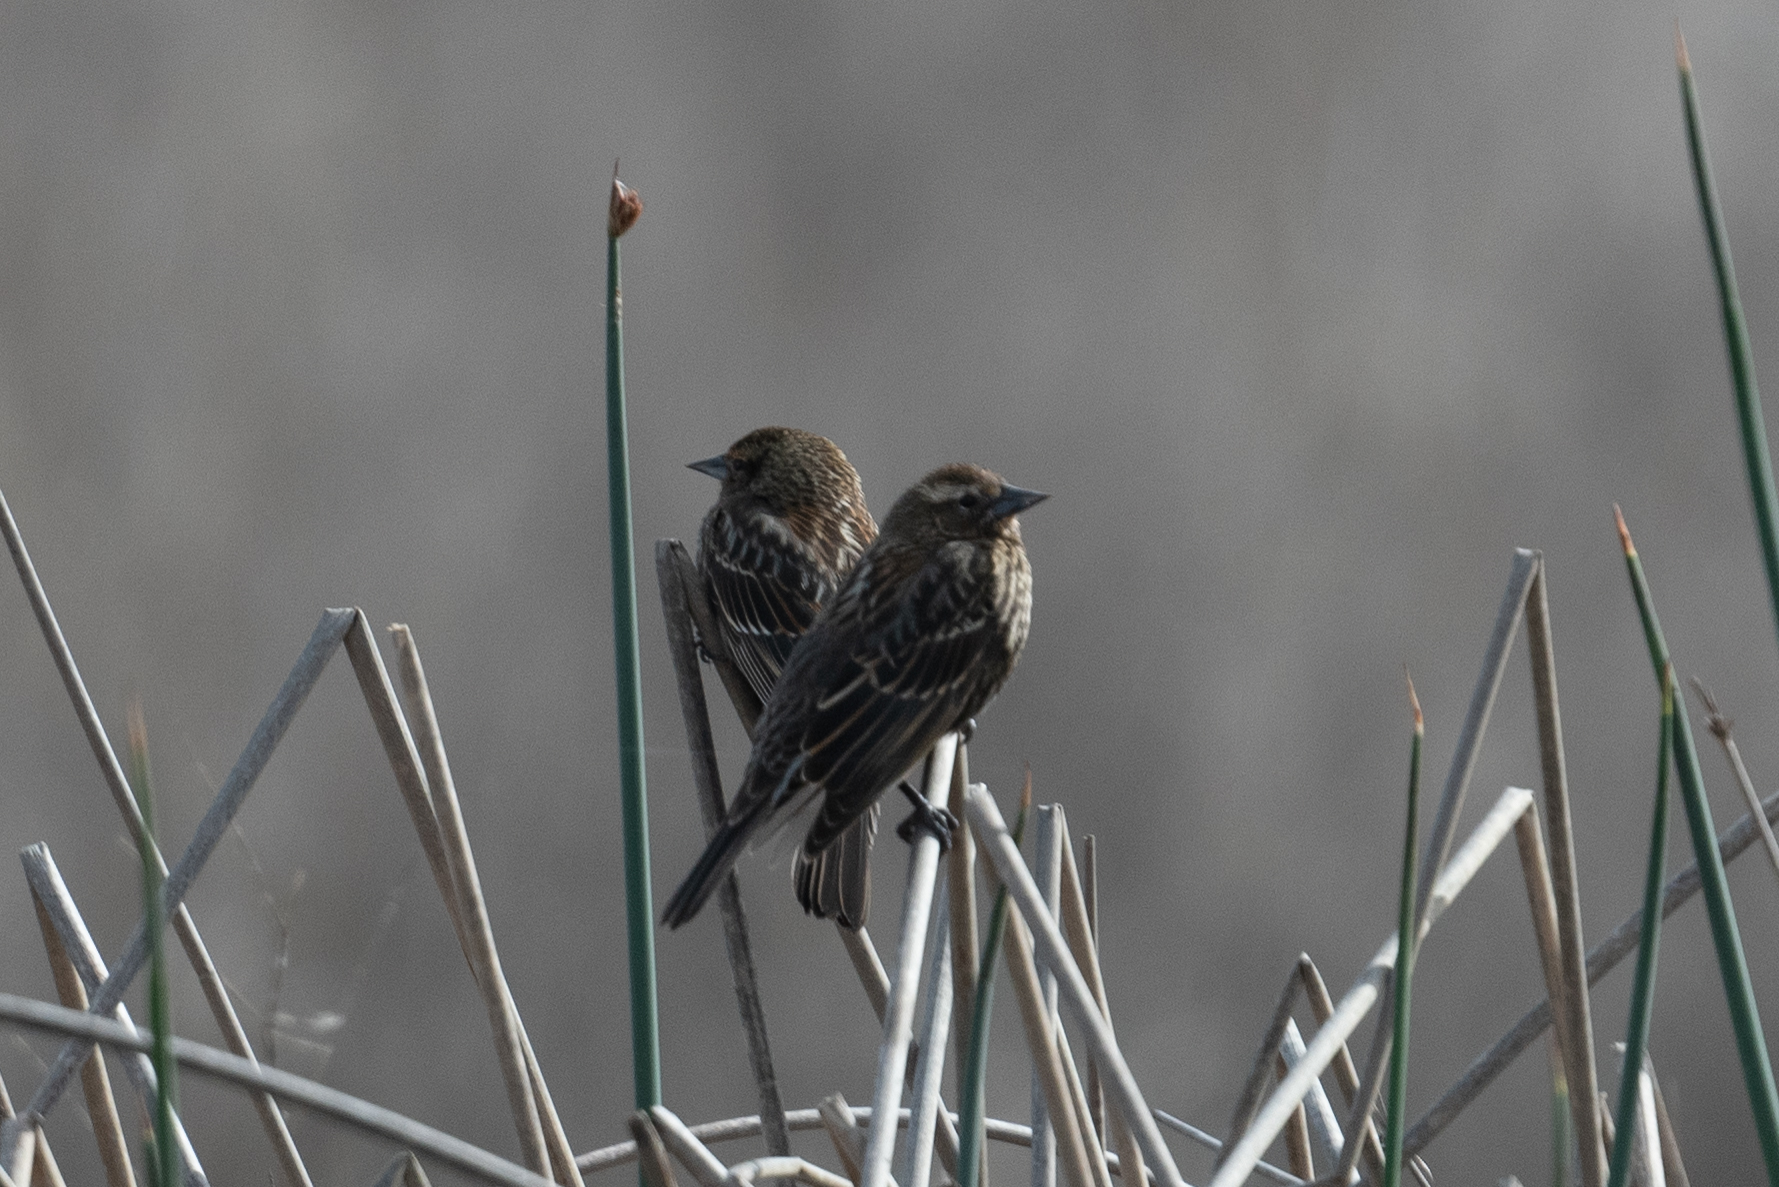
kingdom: Animalia
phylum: Chordata
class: Aves
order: Passeriformes
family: Icteridae
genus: Agelaius
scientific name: Agelaius phoeniceus
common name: Red-winged blackbird
